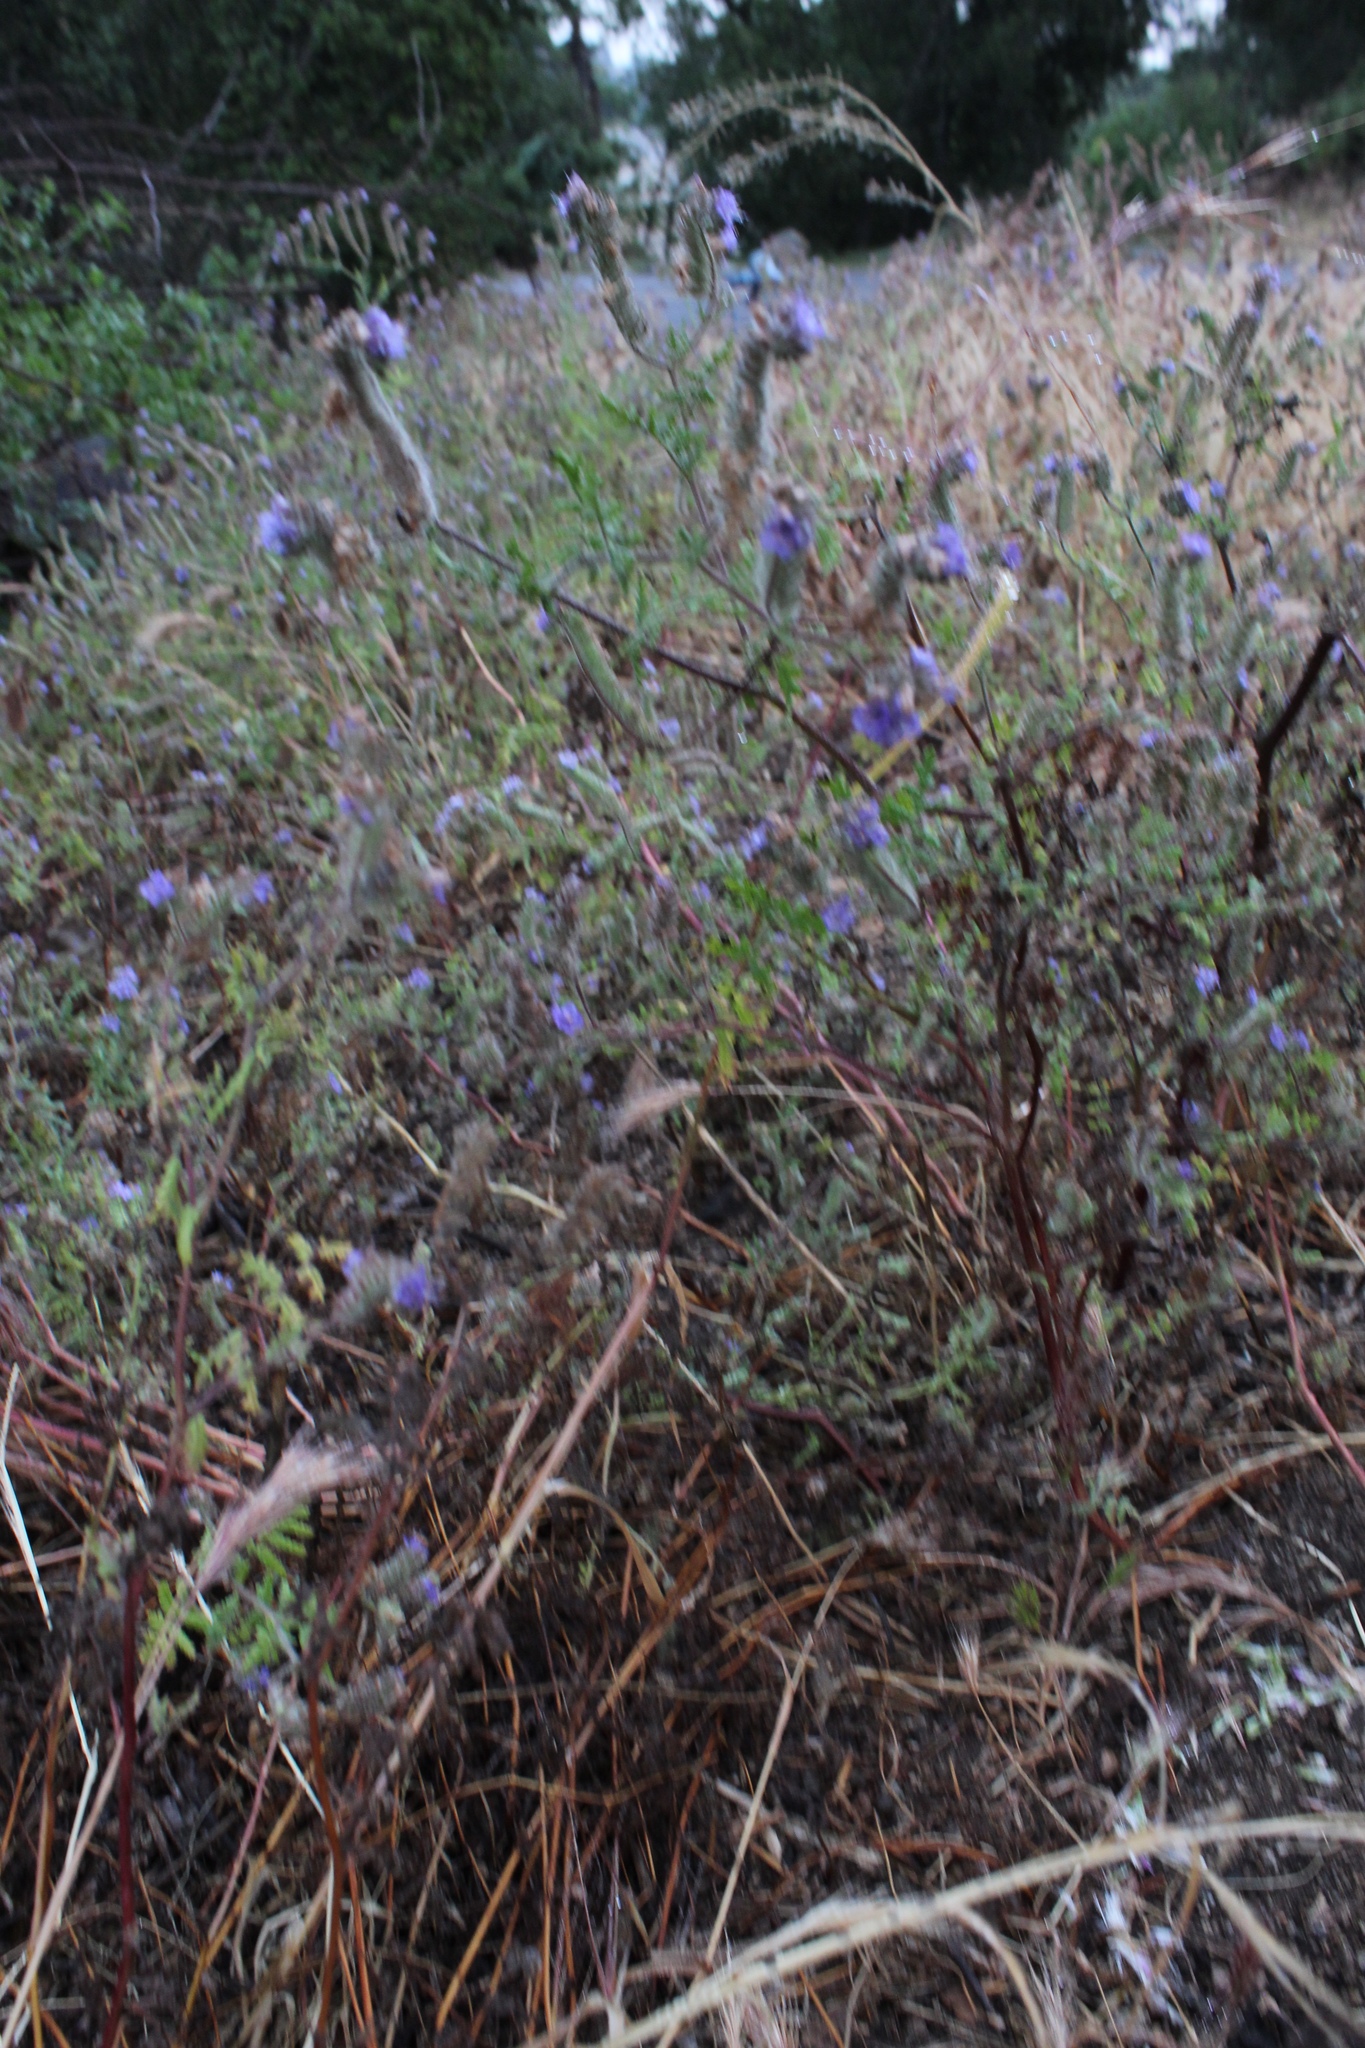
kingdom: Plantae
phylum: Tracheophyta
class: Magnoliopsida
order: Boraginales
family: Hydrophyllaceae
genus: Phacelia
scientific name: Phacelia distans
